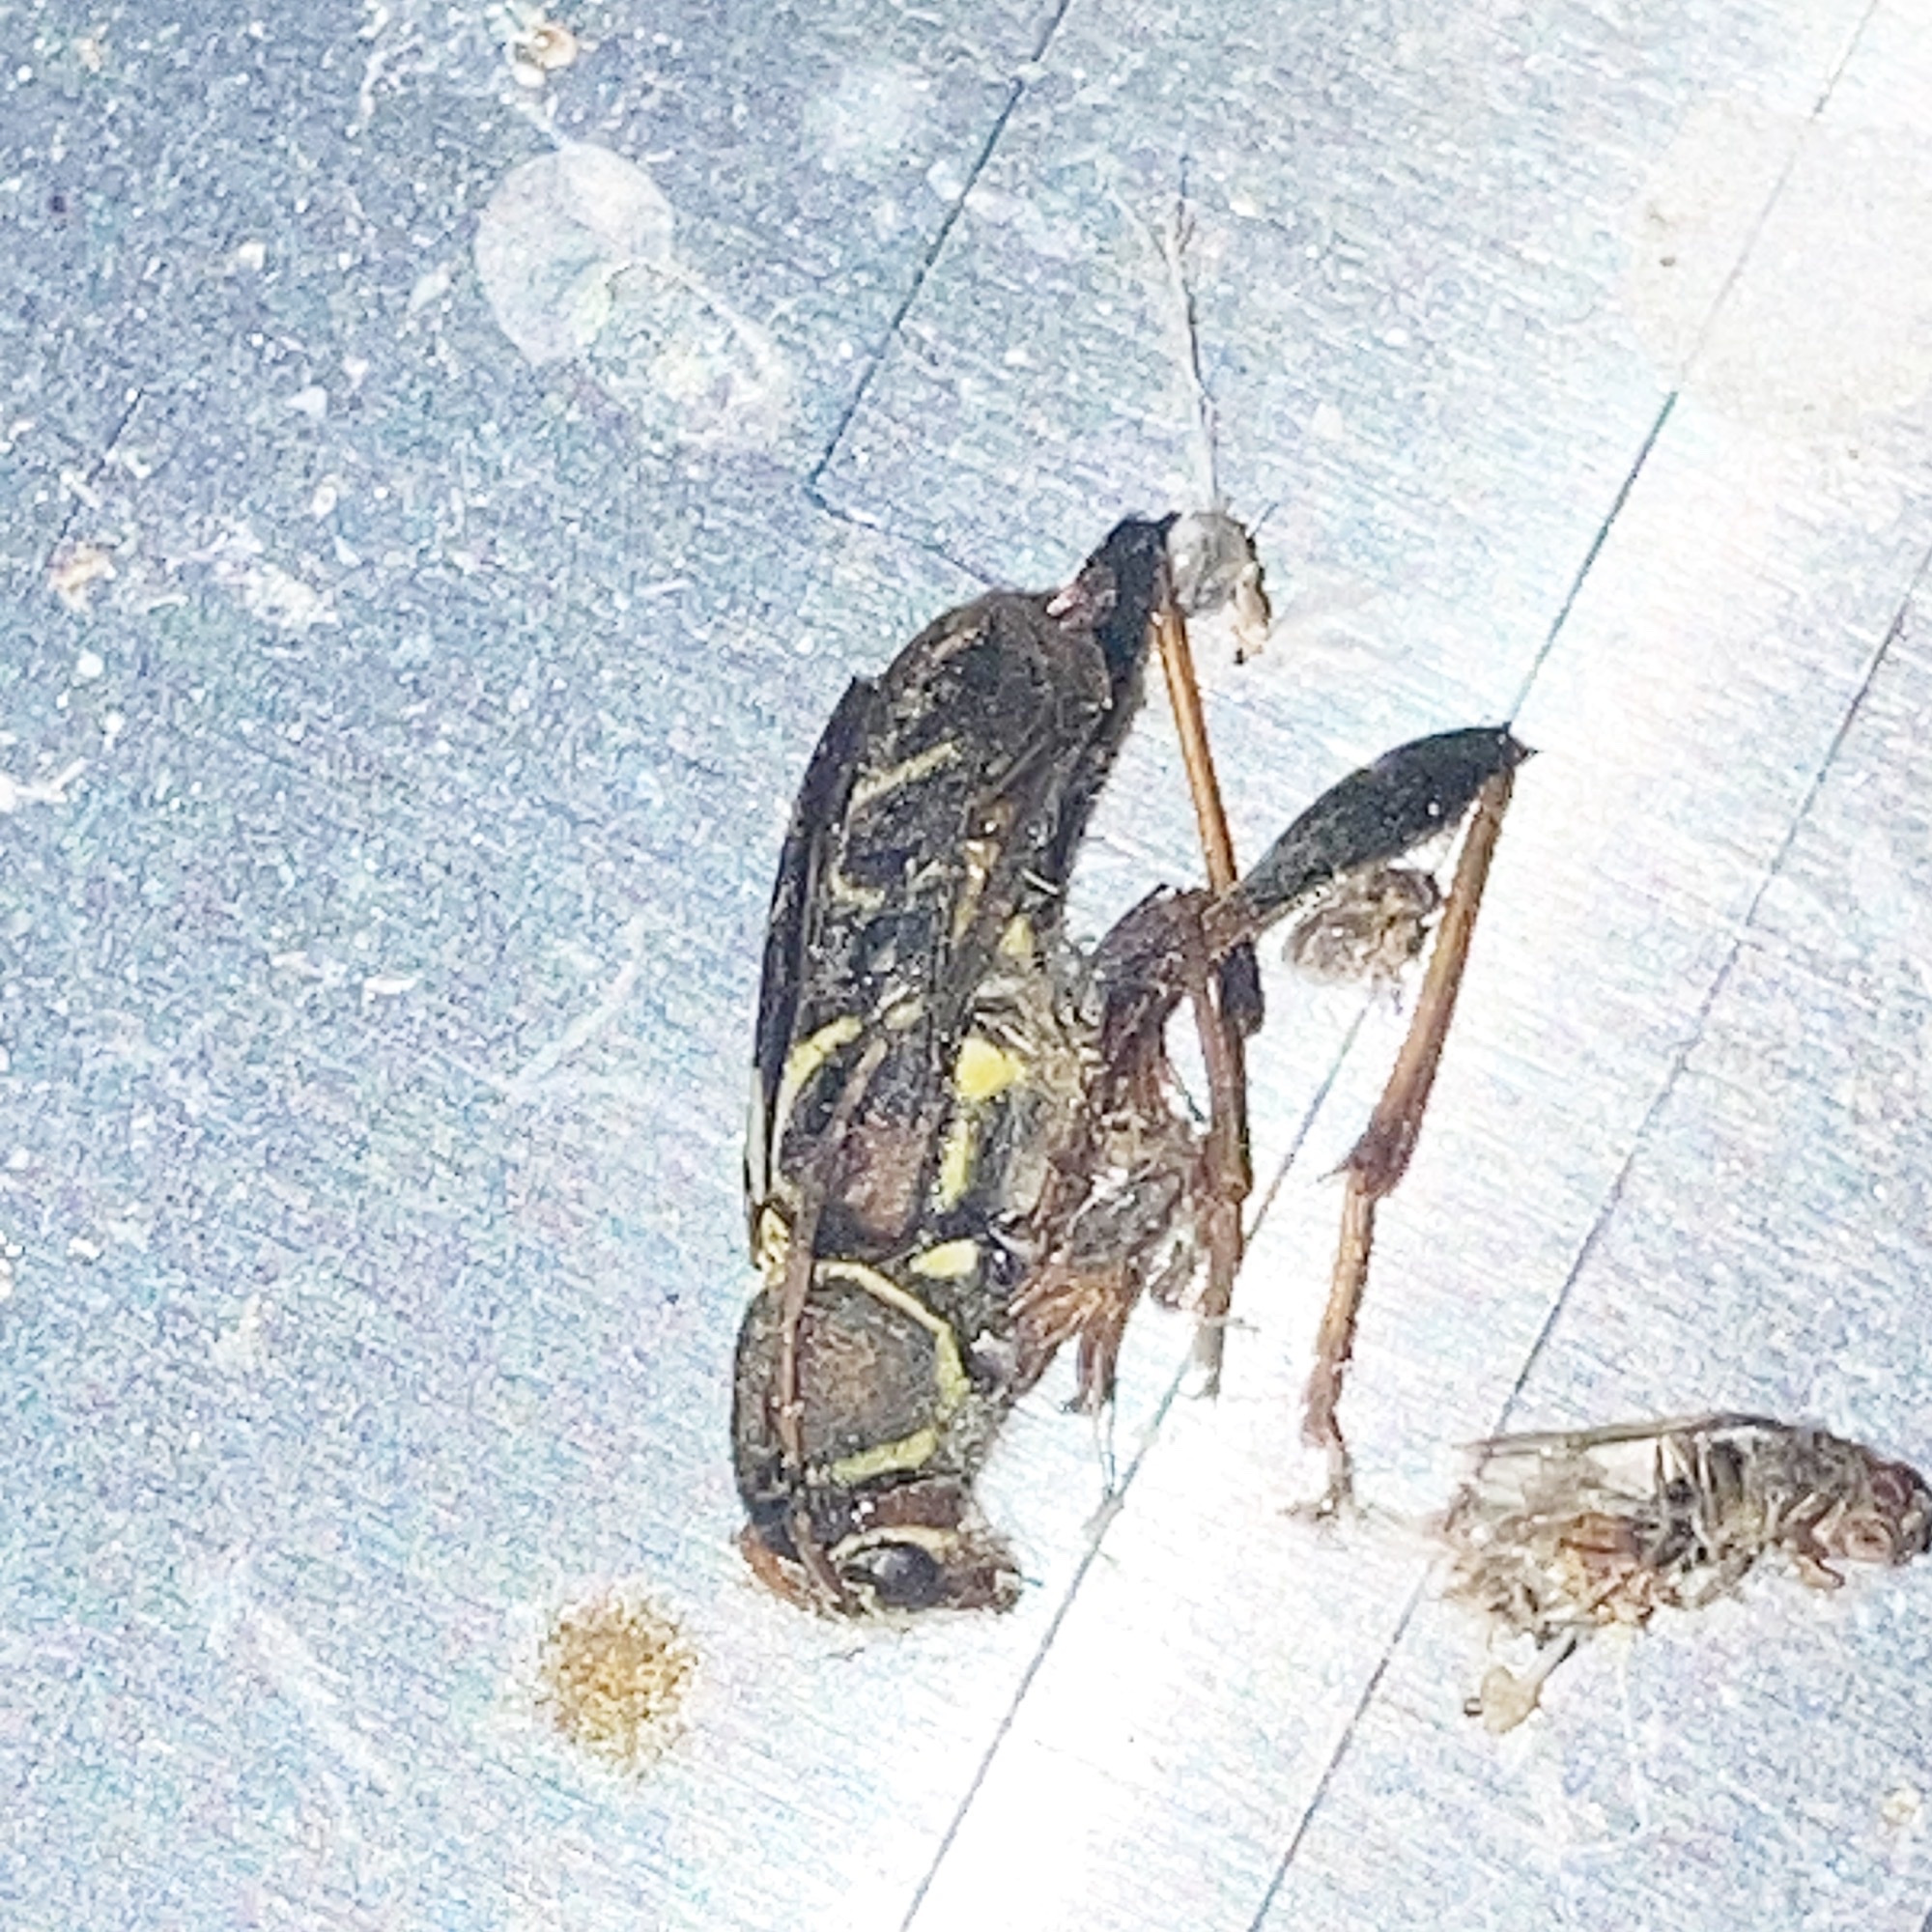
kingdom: Animalia
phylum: Arthropoda
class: Insecta
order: Coleoptera
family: Cerambycidae
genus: Neoclytus
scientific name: Neoclytus mucronatus
